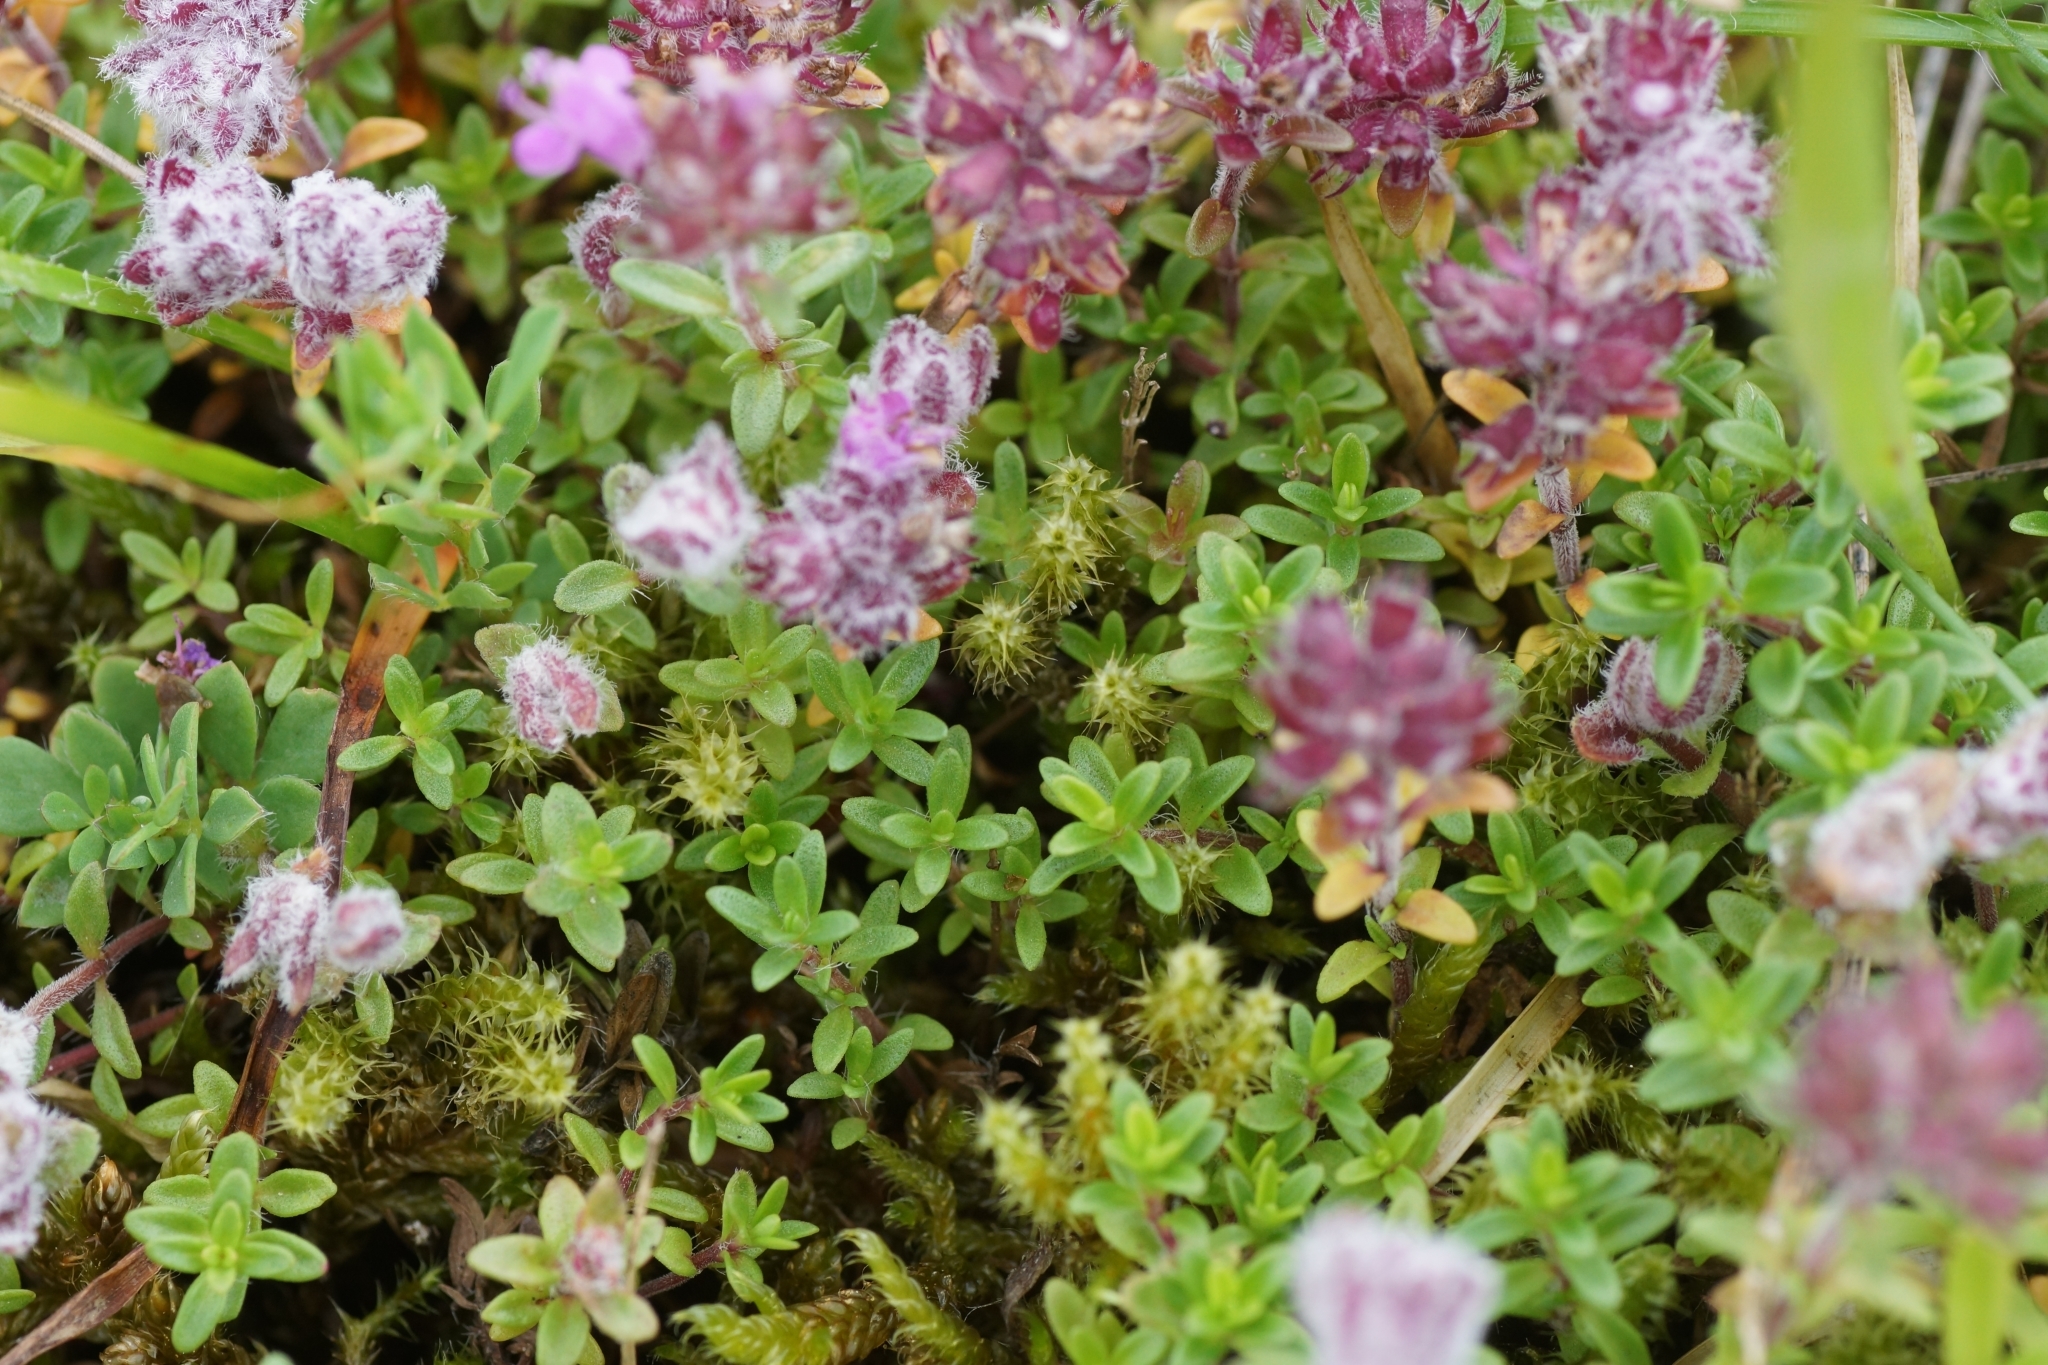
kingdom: Plantae
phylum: Tracheophyta
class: Magnoliopsida
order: Lamiales
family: Lamiaceae
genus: Thymus
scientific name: Thymus serpyllum
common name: Breckland thyme
